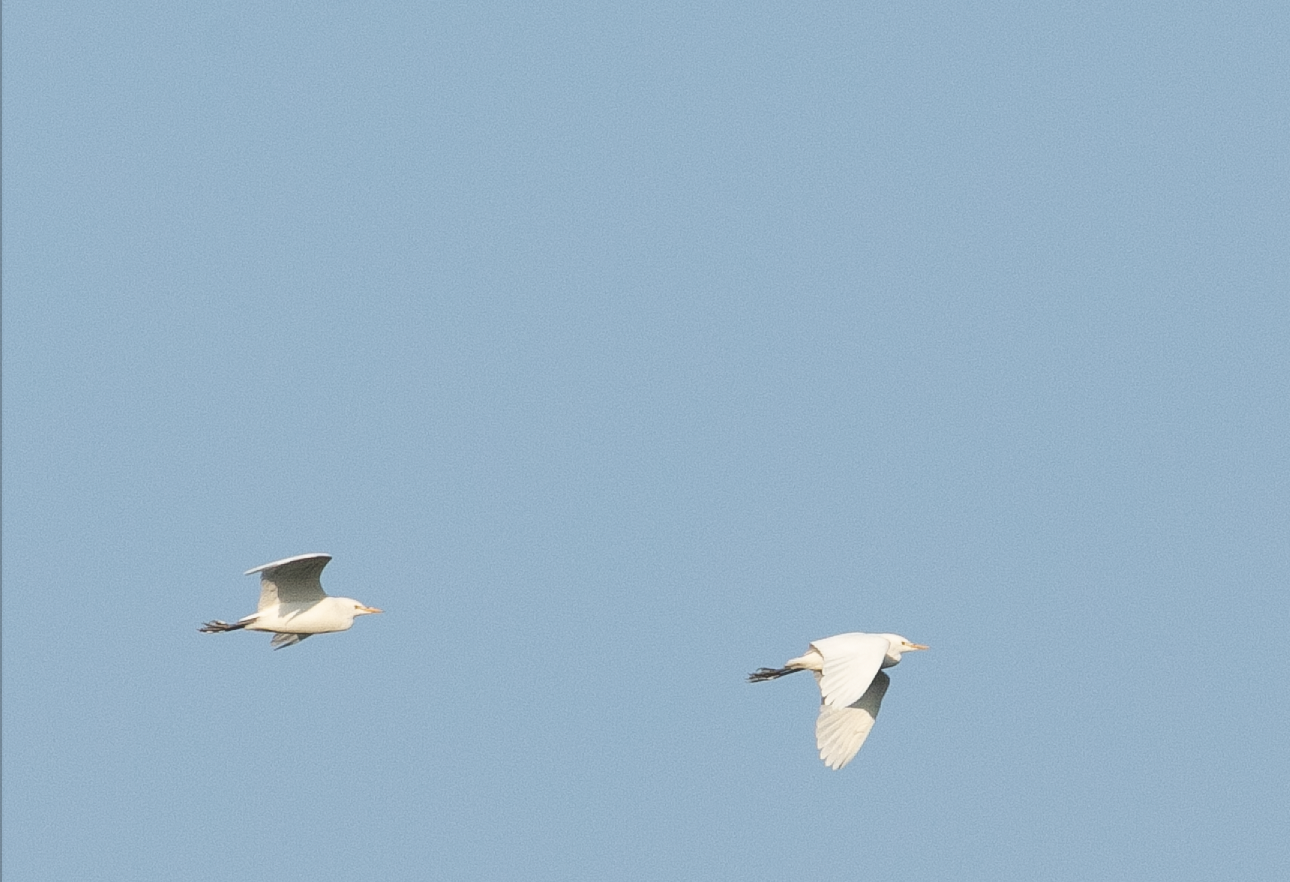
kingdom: Animalia
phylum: Chordata
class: Aves
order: Pelecaniformes
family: Ardeidae
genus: Bubulcus
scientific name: Bubulcus ibis
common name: Cattle egret
